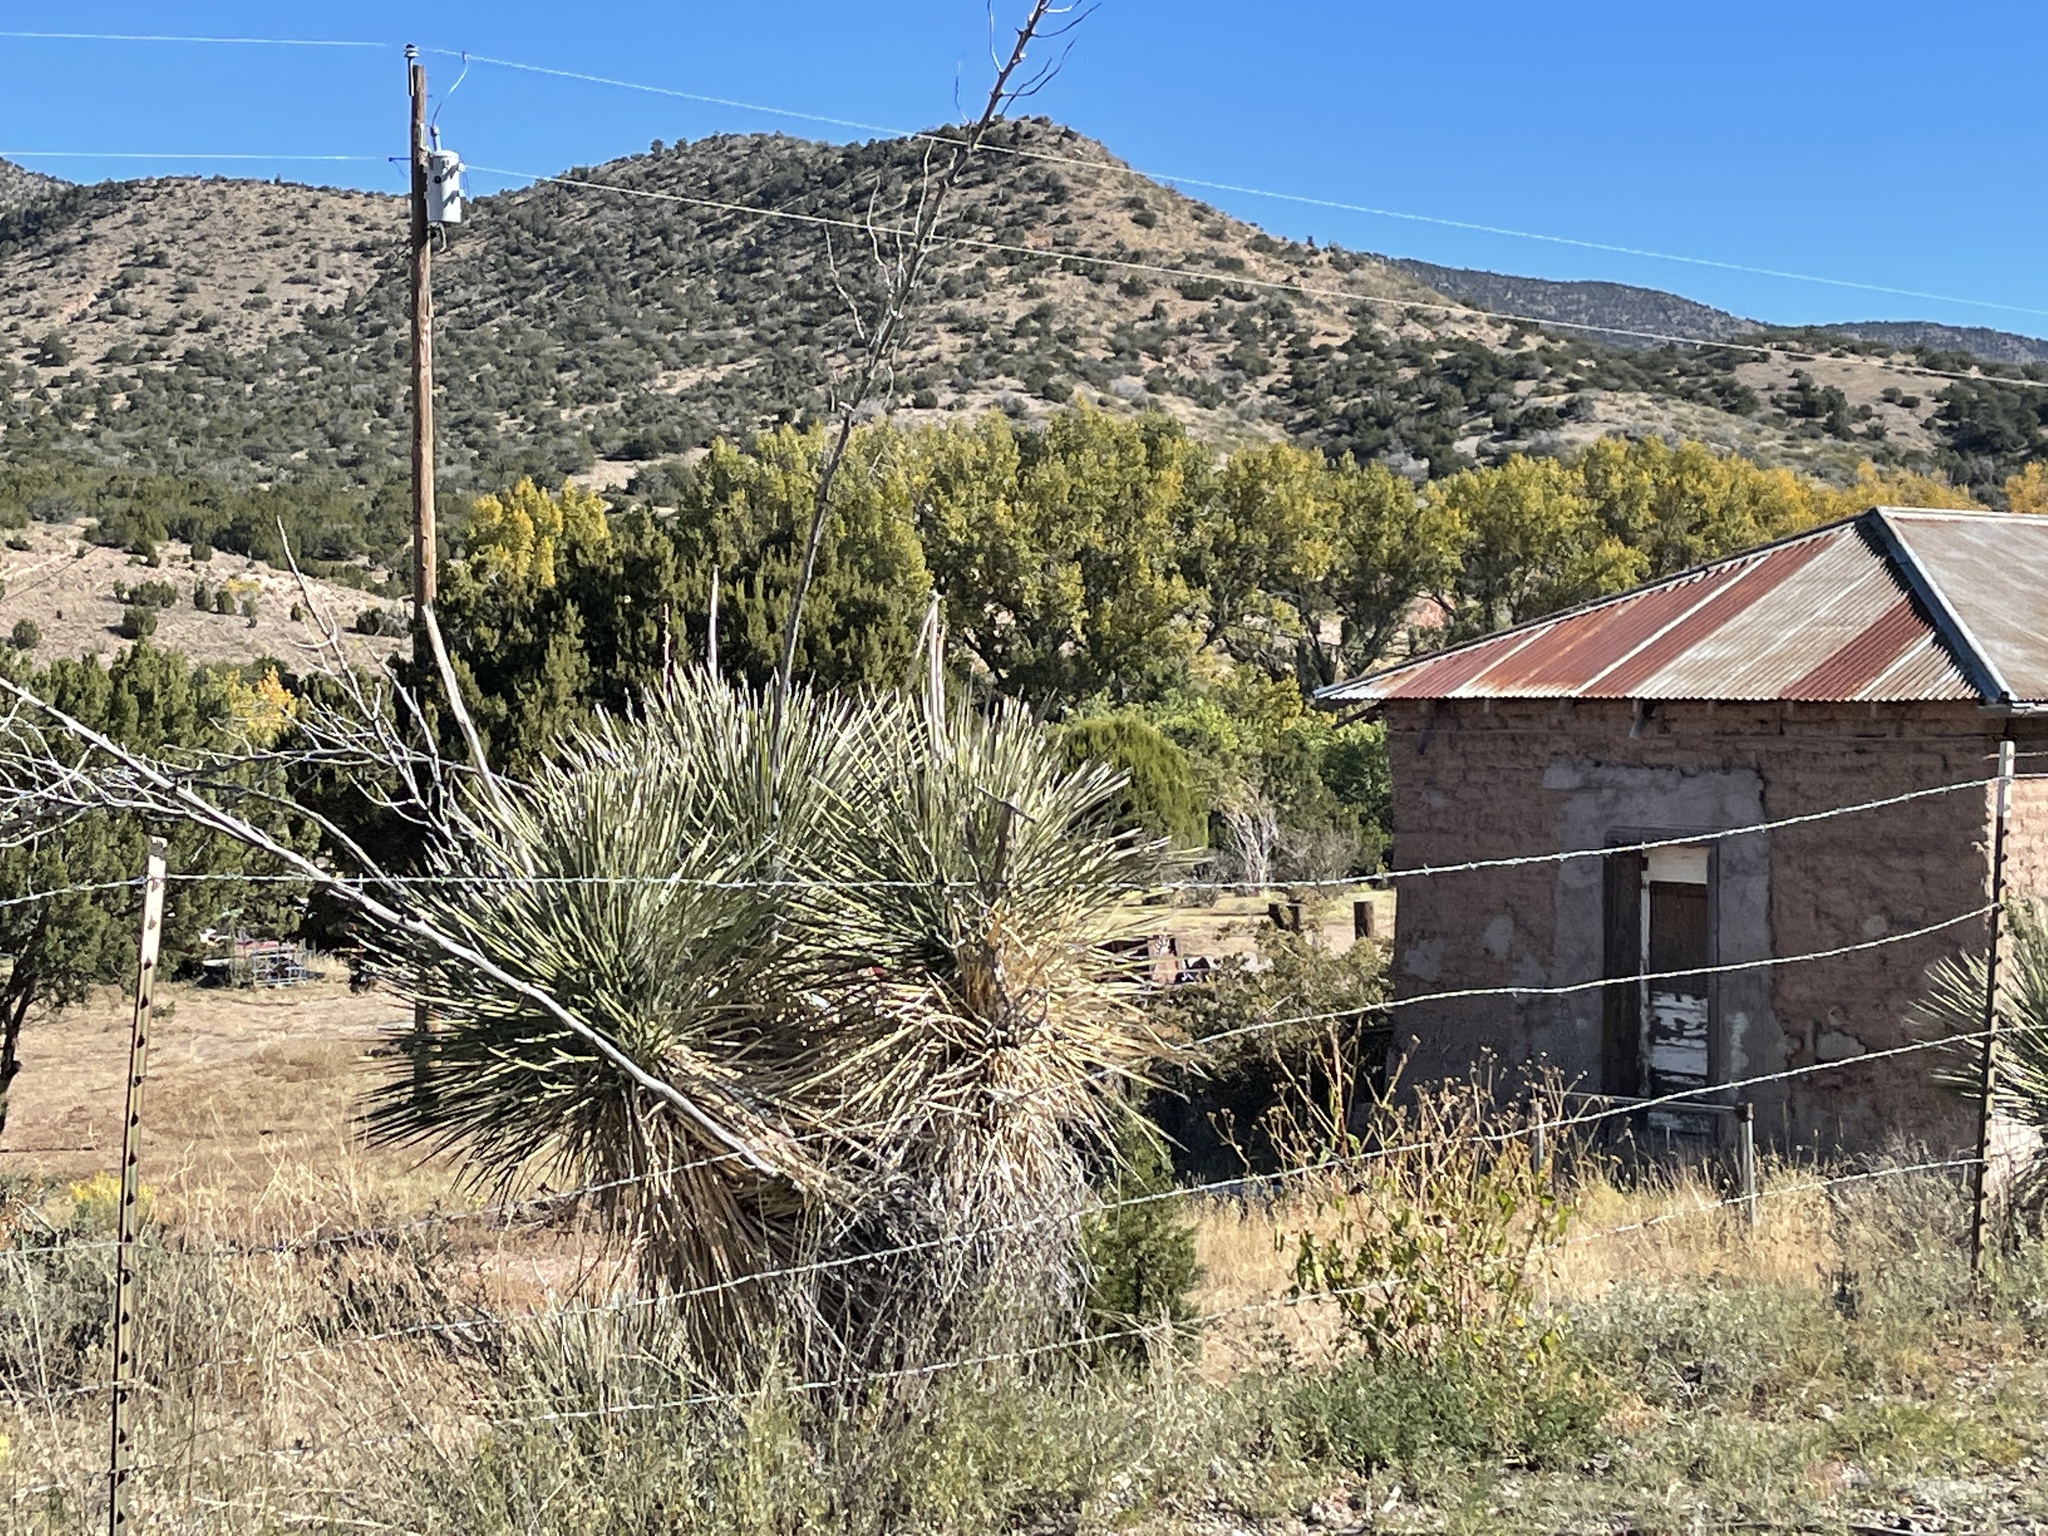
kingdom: Plantae
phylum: Tracheophyta
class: Liliopsida
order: Asparagales
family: Asparagaceae
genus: Yucca
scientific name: Yucca elata
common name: Palmella
